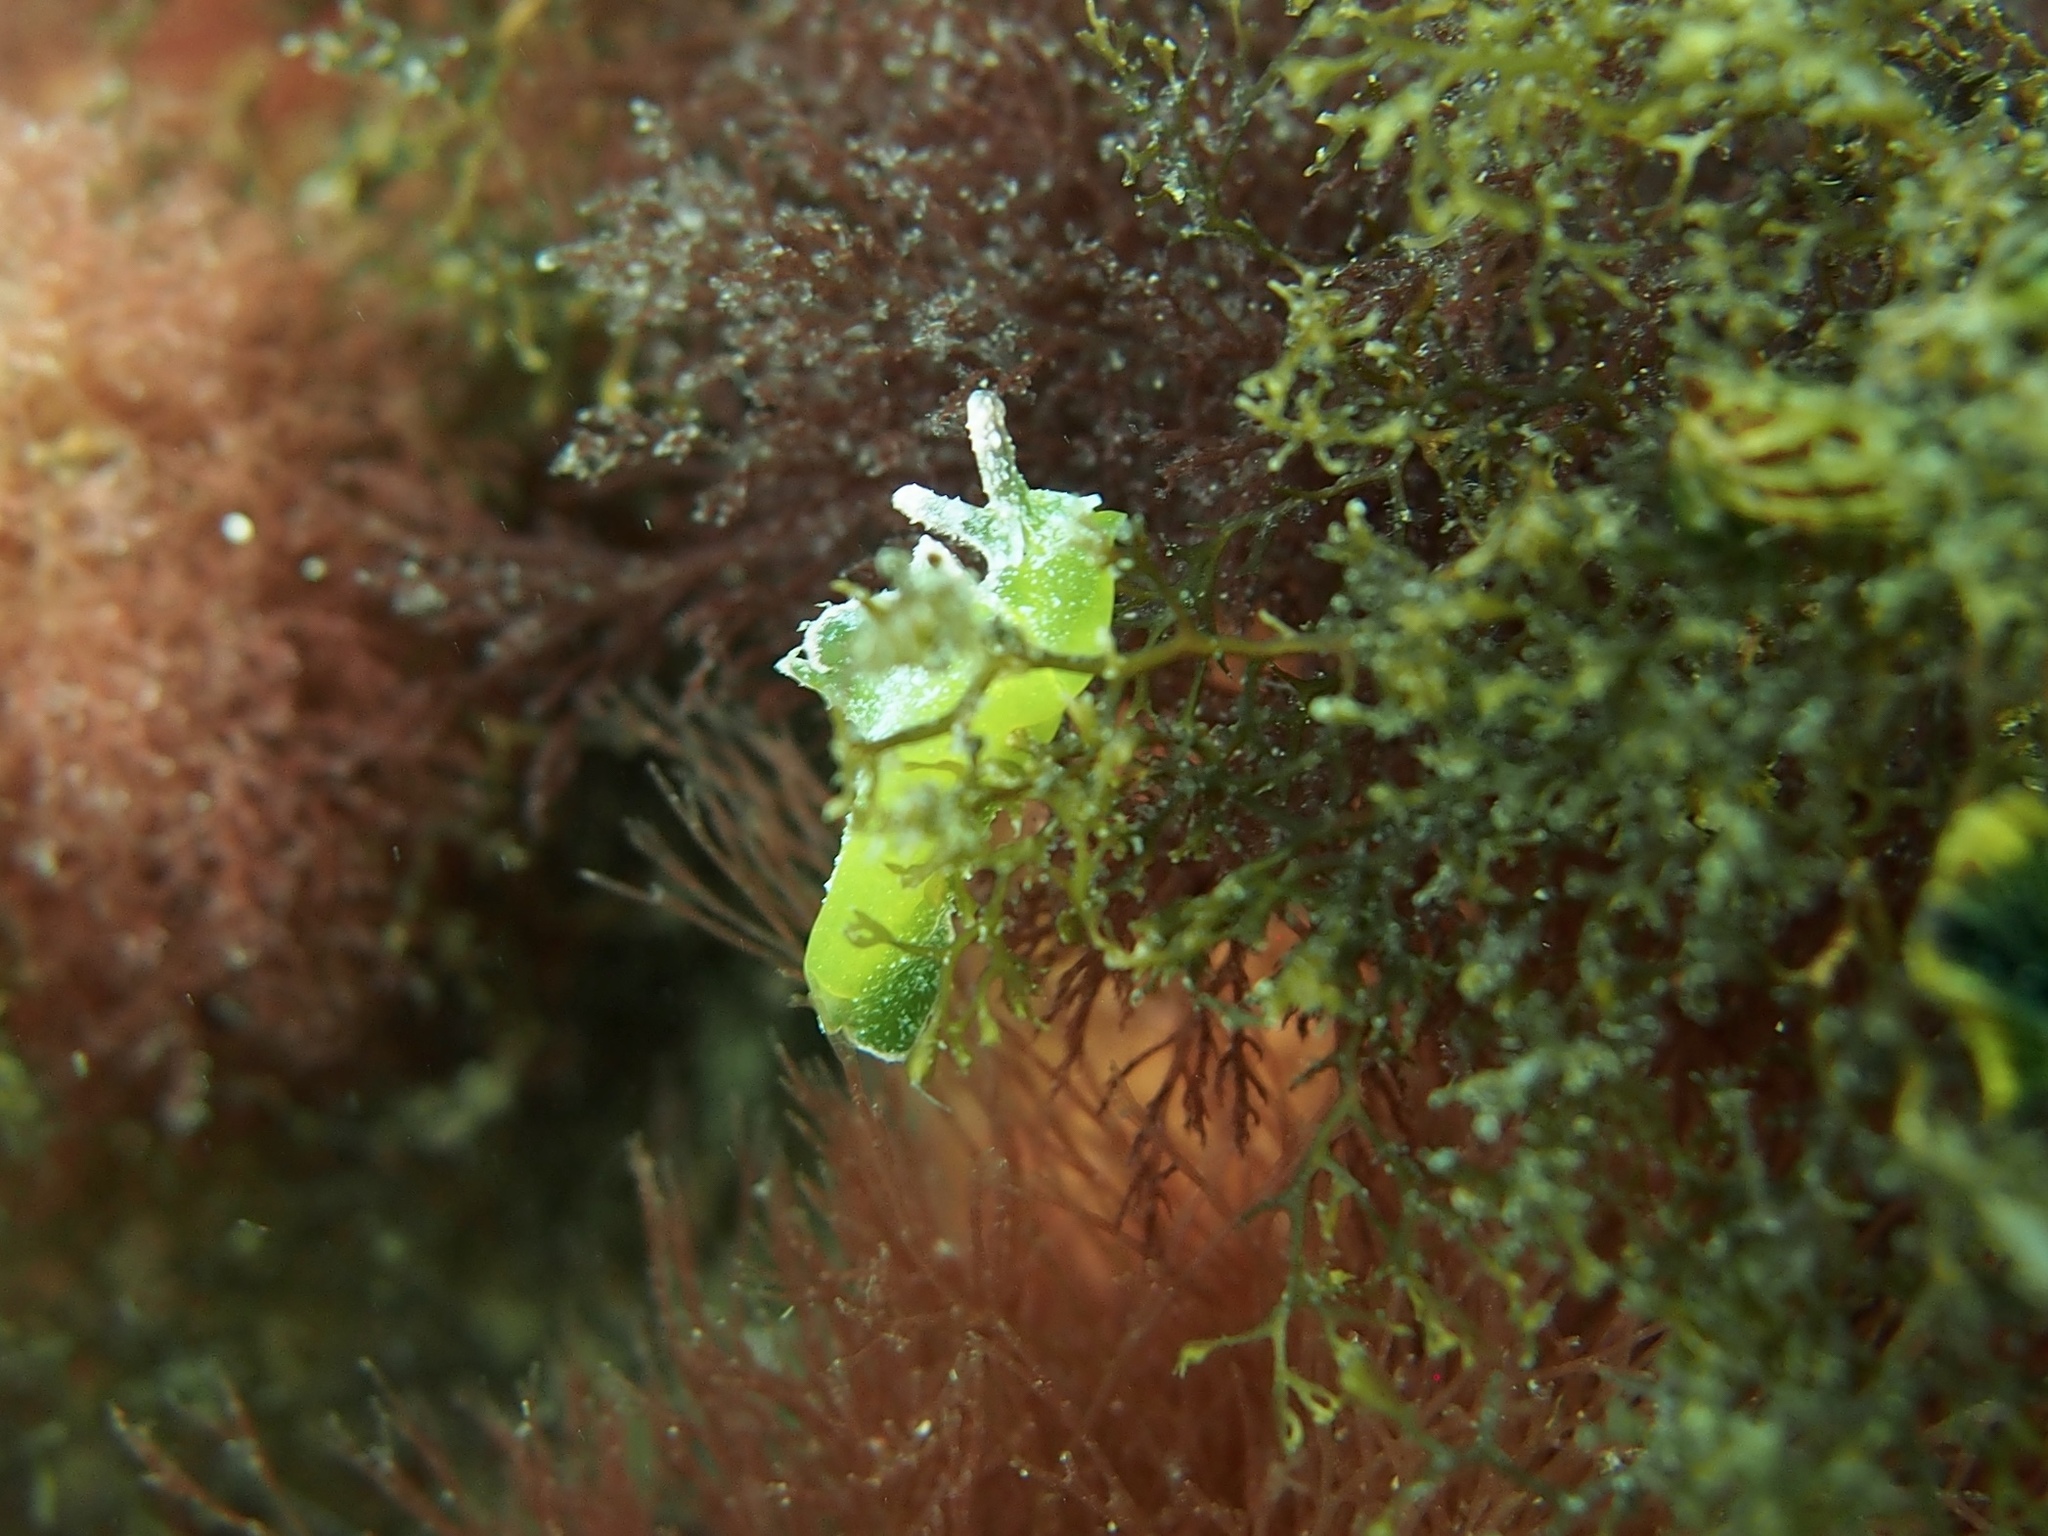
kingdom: Animalia
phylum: Mollusca
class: Gastropoda
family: Plakobranchidae
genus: Elysia
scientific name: Elysia maoria
